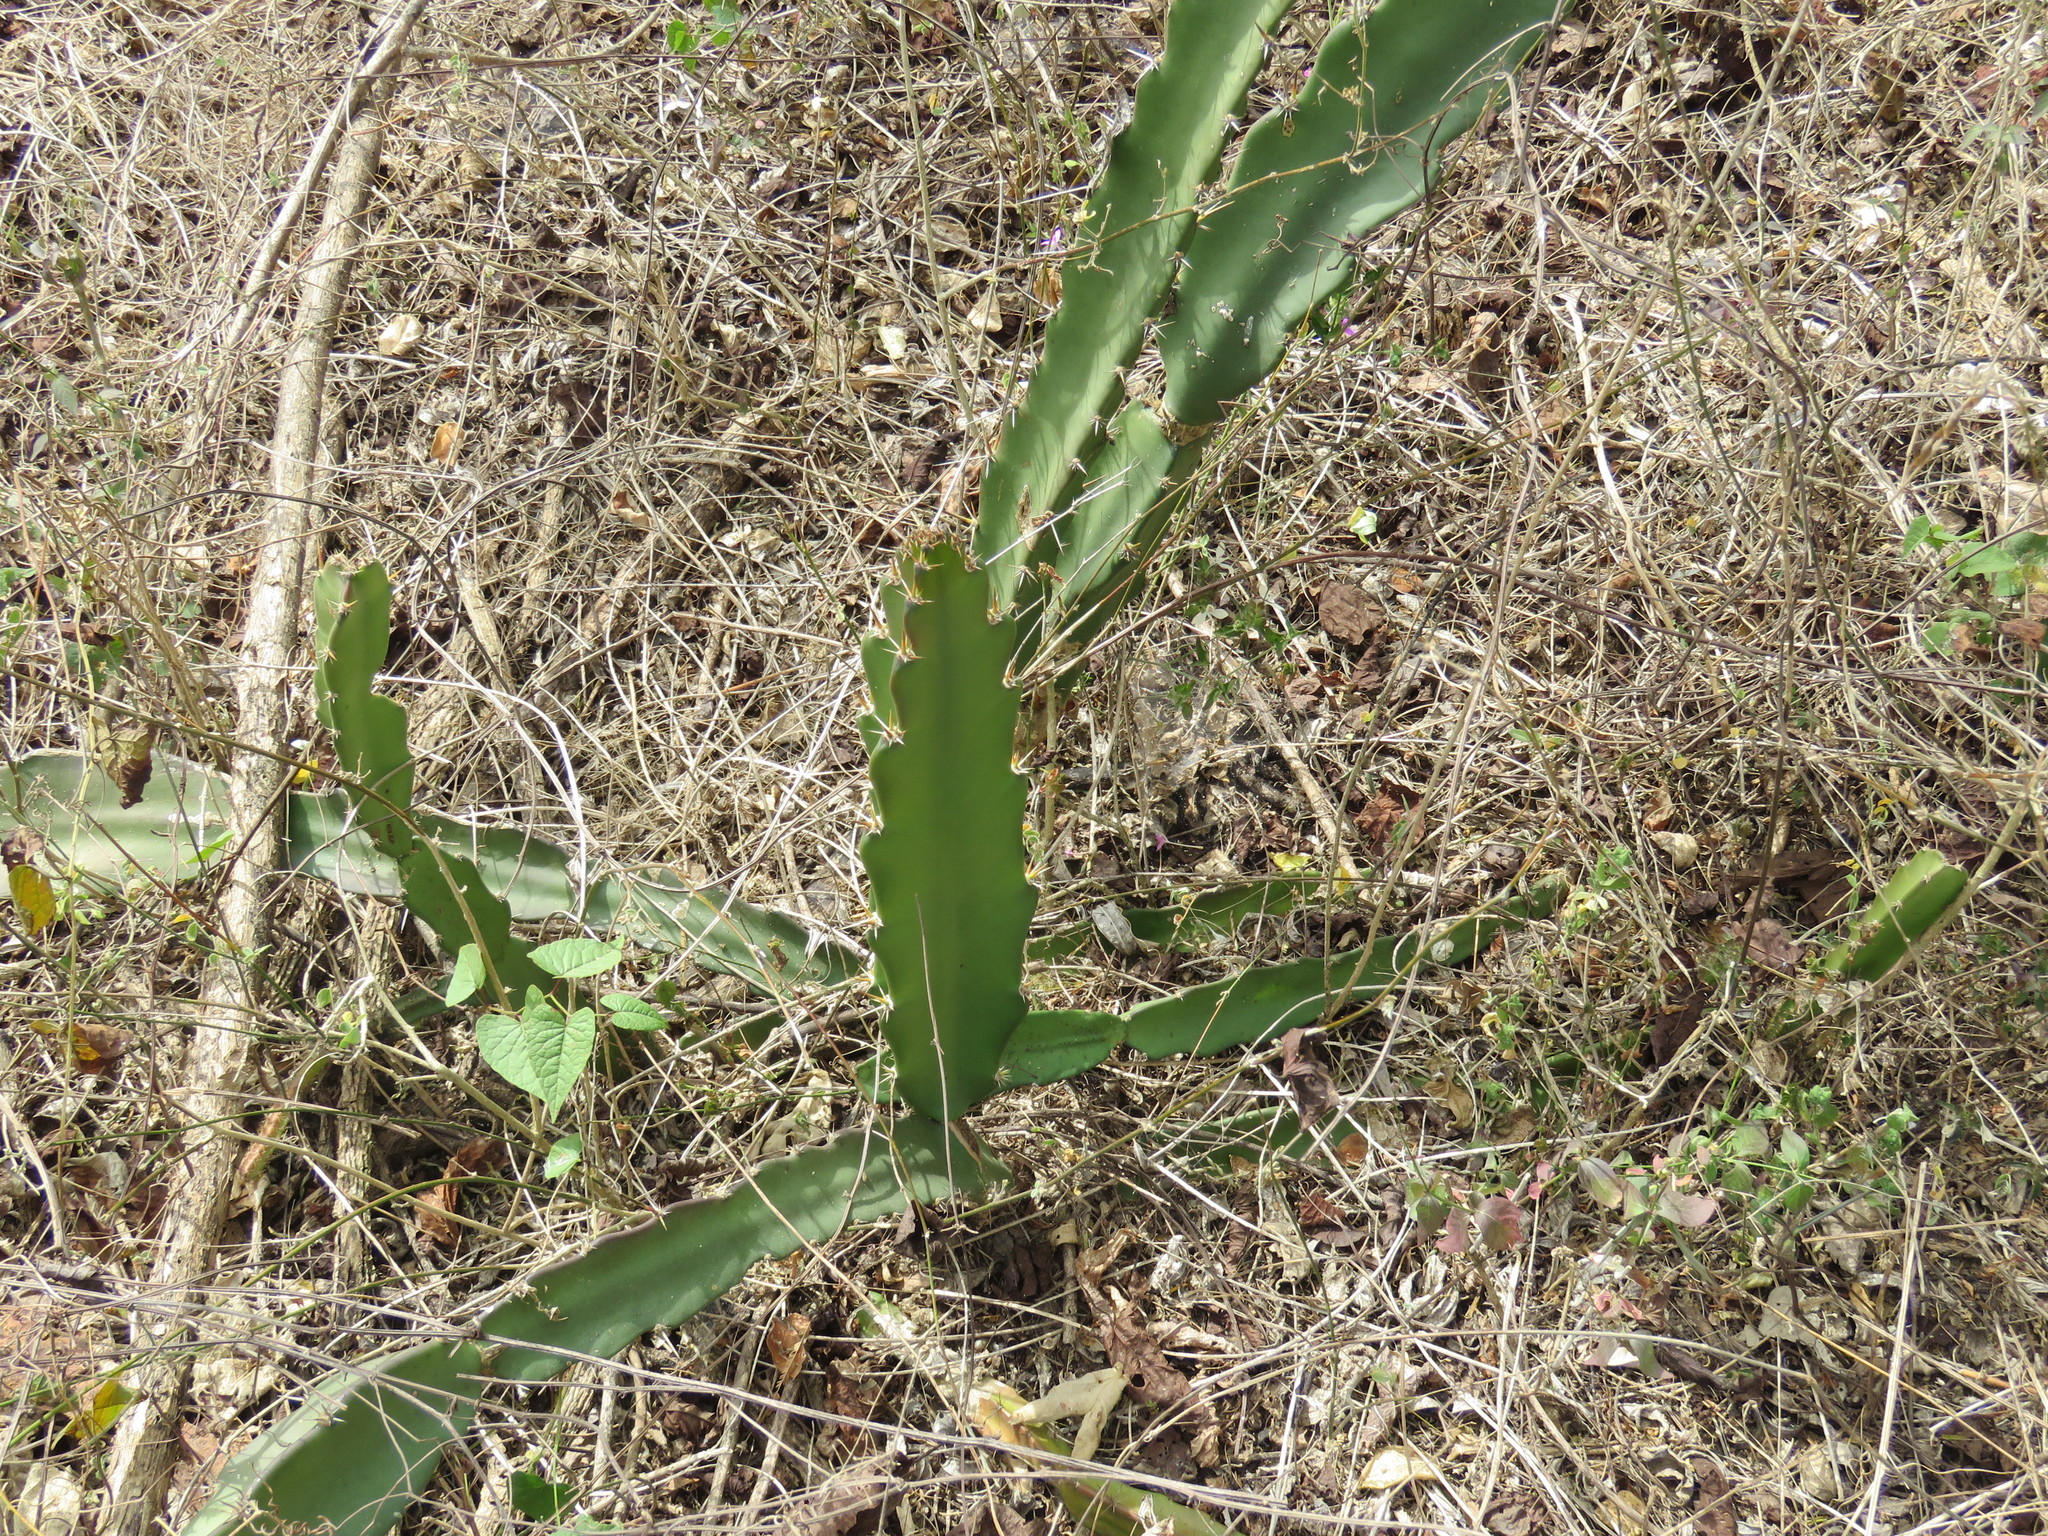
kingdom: Plantae
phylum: Tracheophyta
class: Magnoliopsida
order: Caryophyllales
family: Cactaceae
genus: Acanthocereus
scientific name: Acanthocereus tetragonus
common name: Triangle cactus
